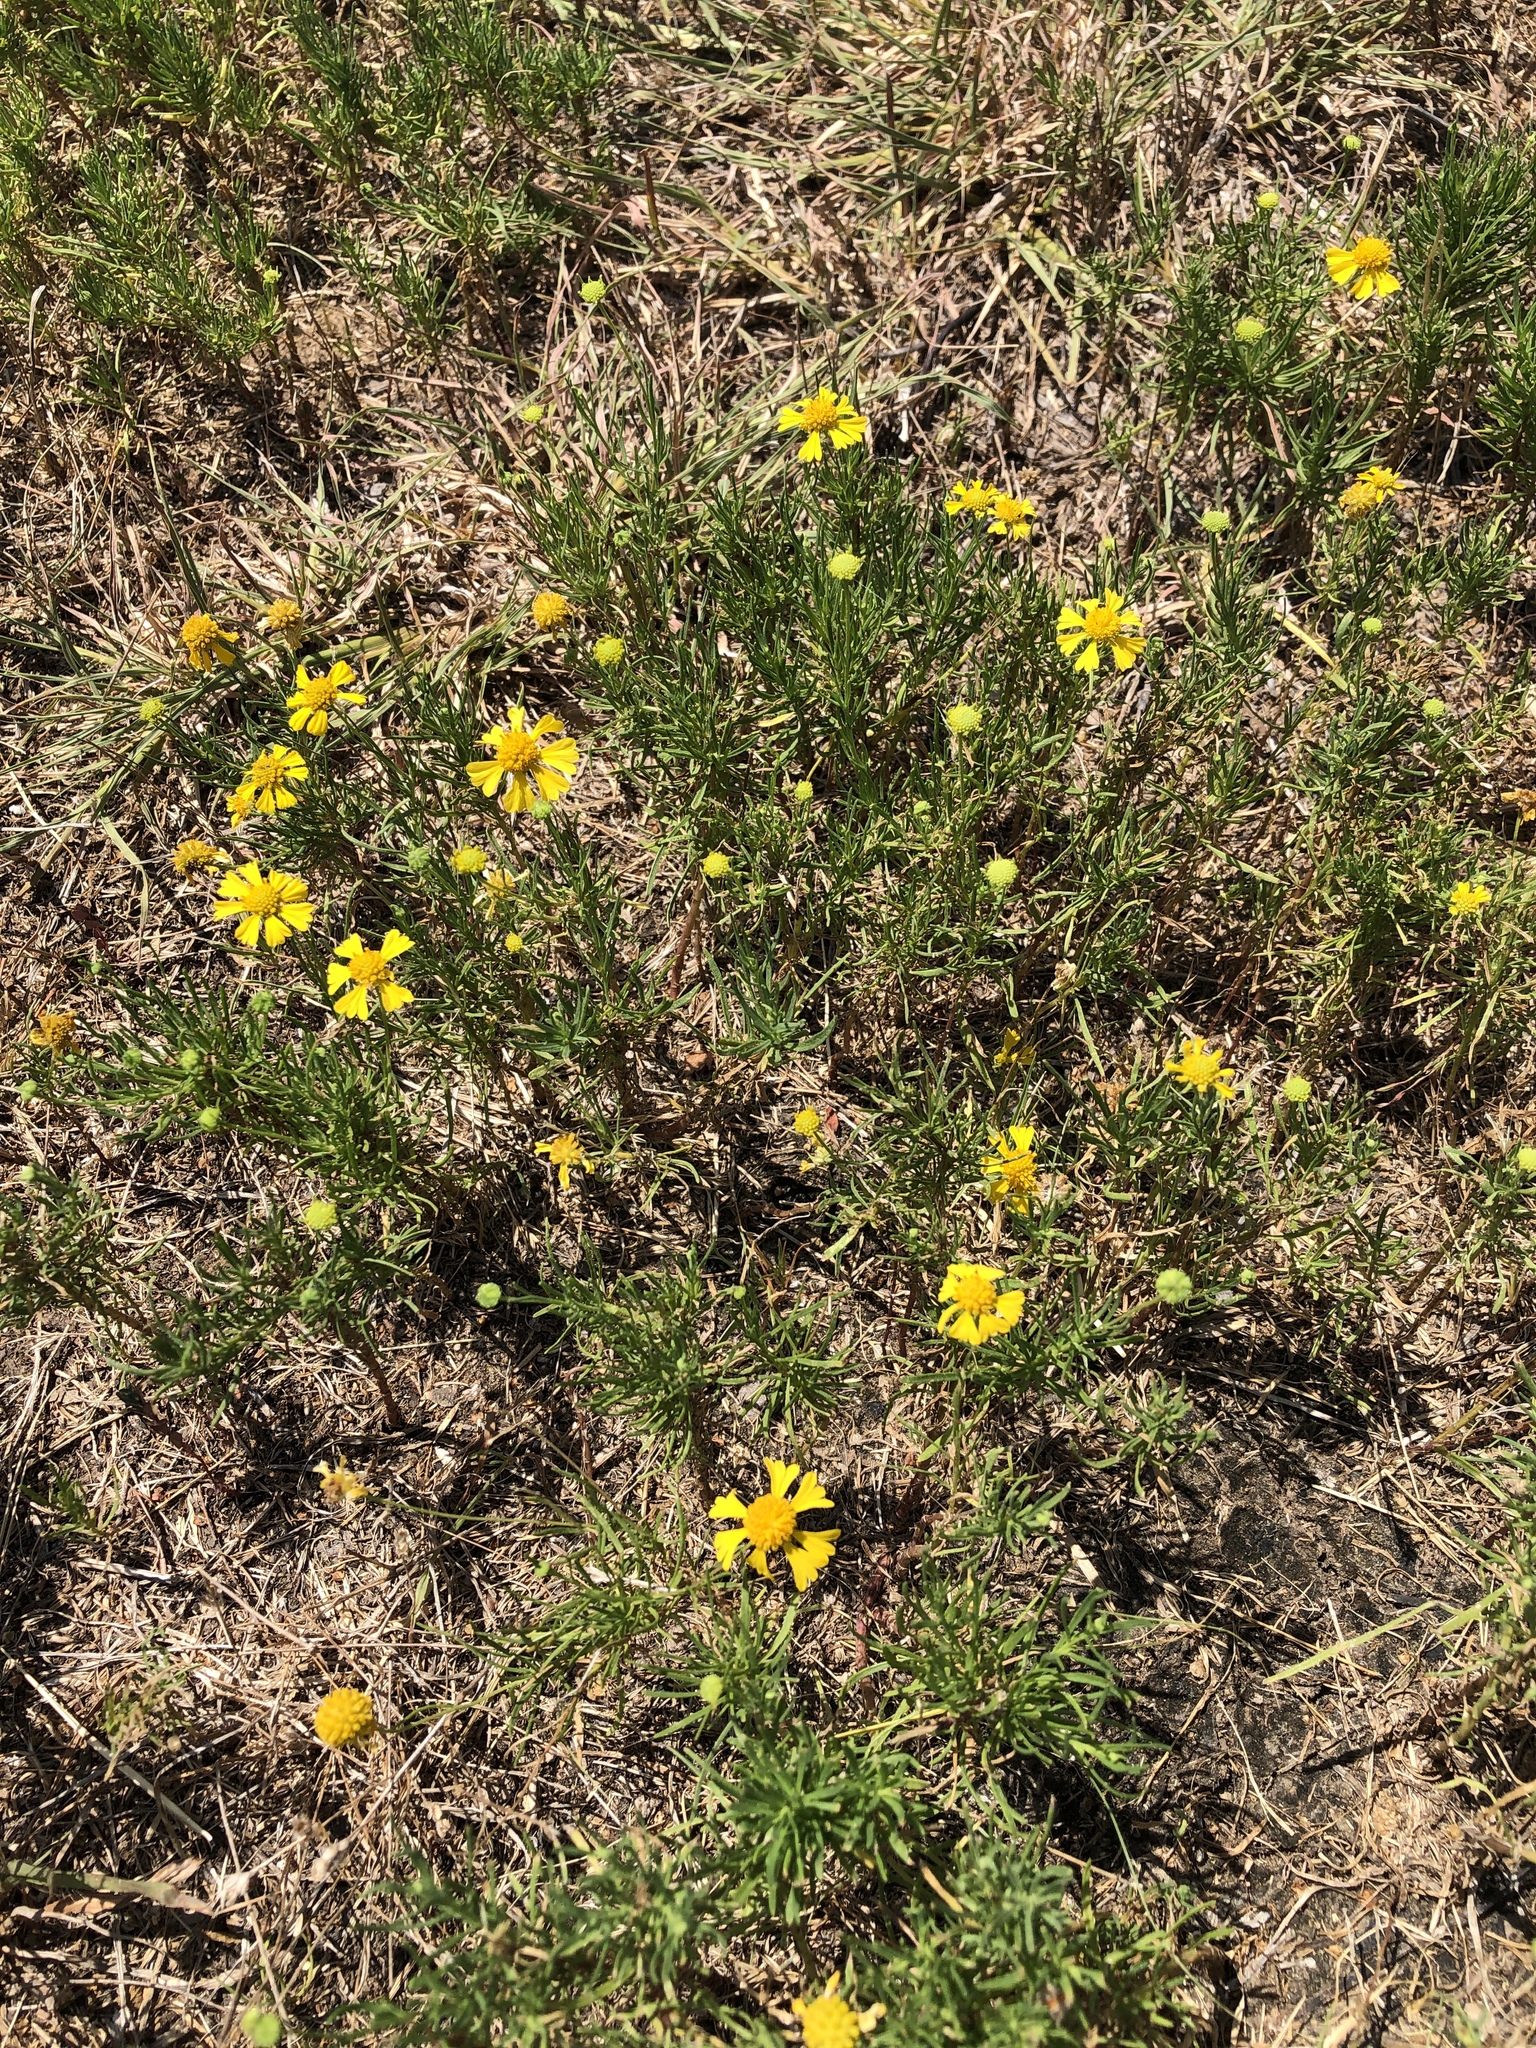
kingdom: Plantae
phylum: Tracheophyta
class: Magnoliopsida
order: Asterales
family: Asteraceae
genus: Helenium
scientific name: Helenium amarum
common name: Bitter sneezeweed
